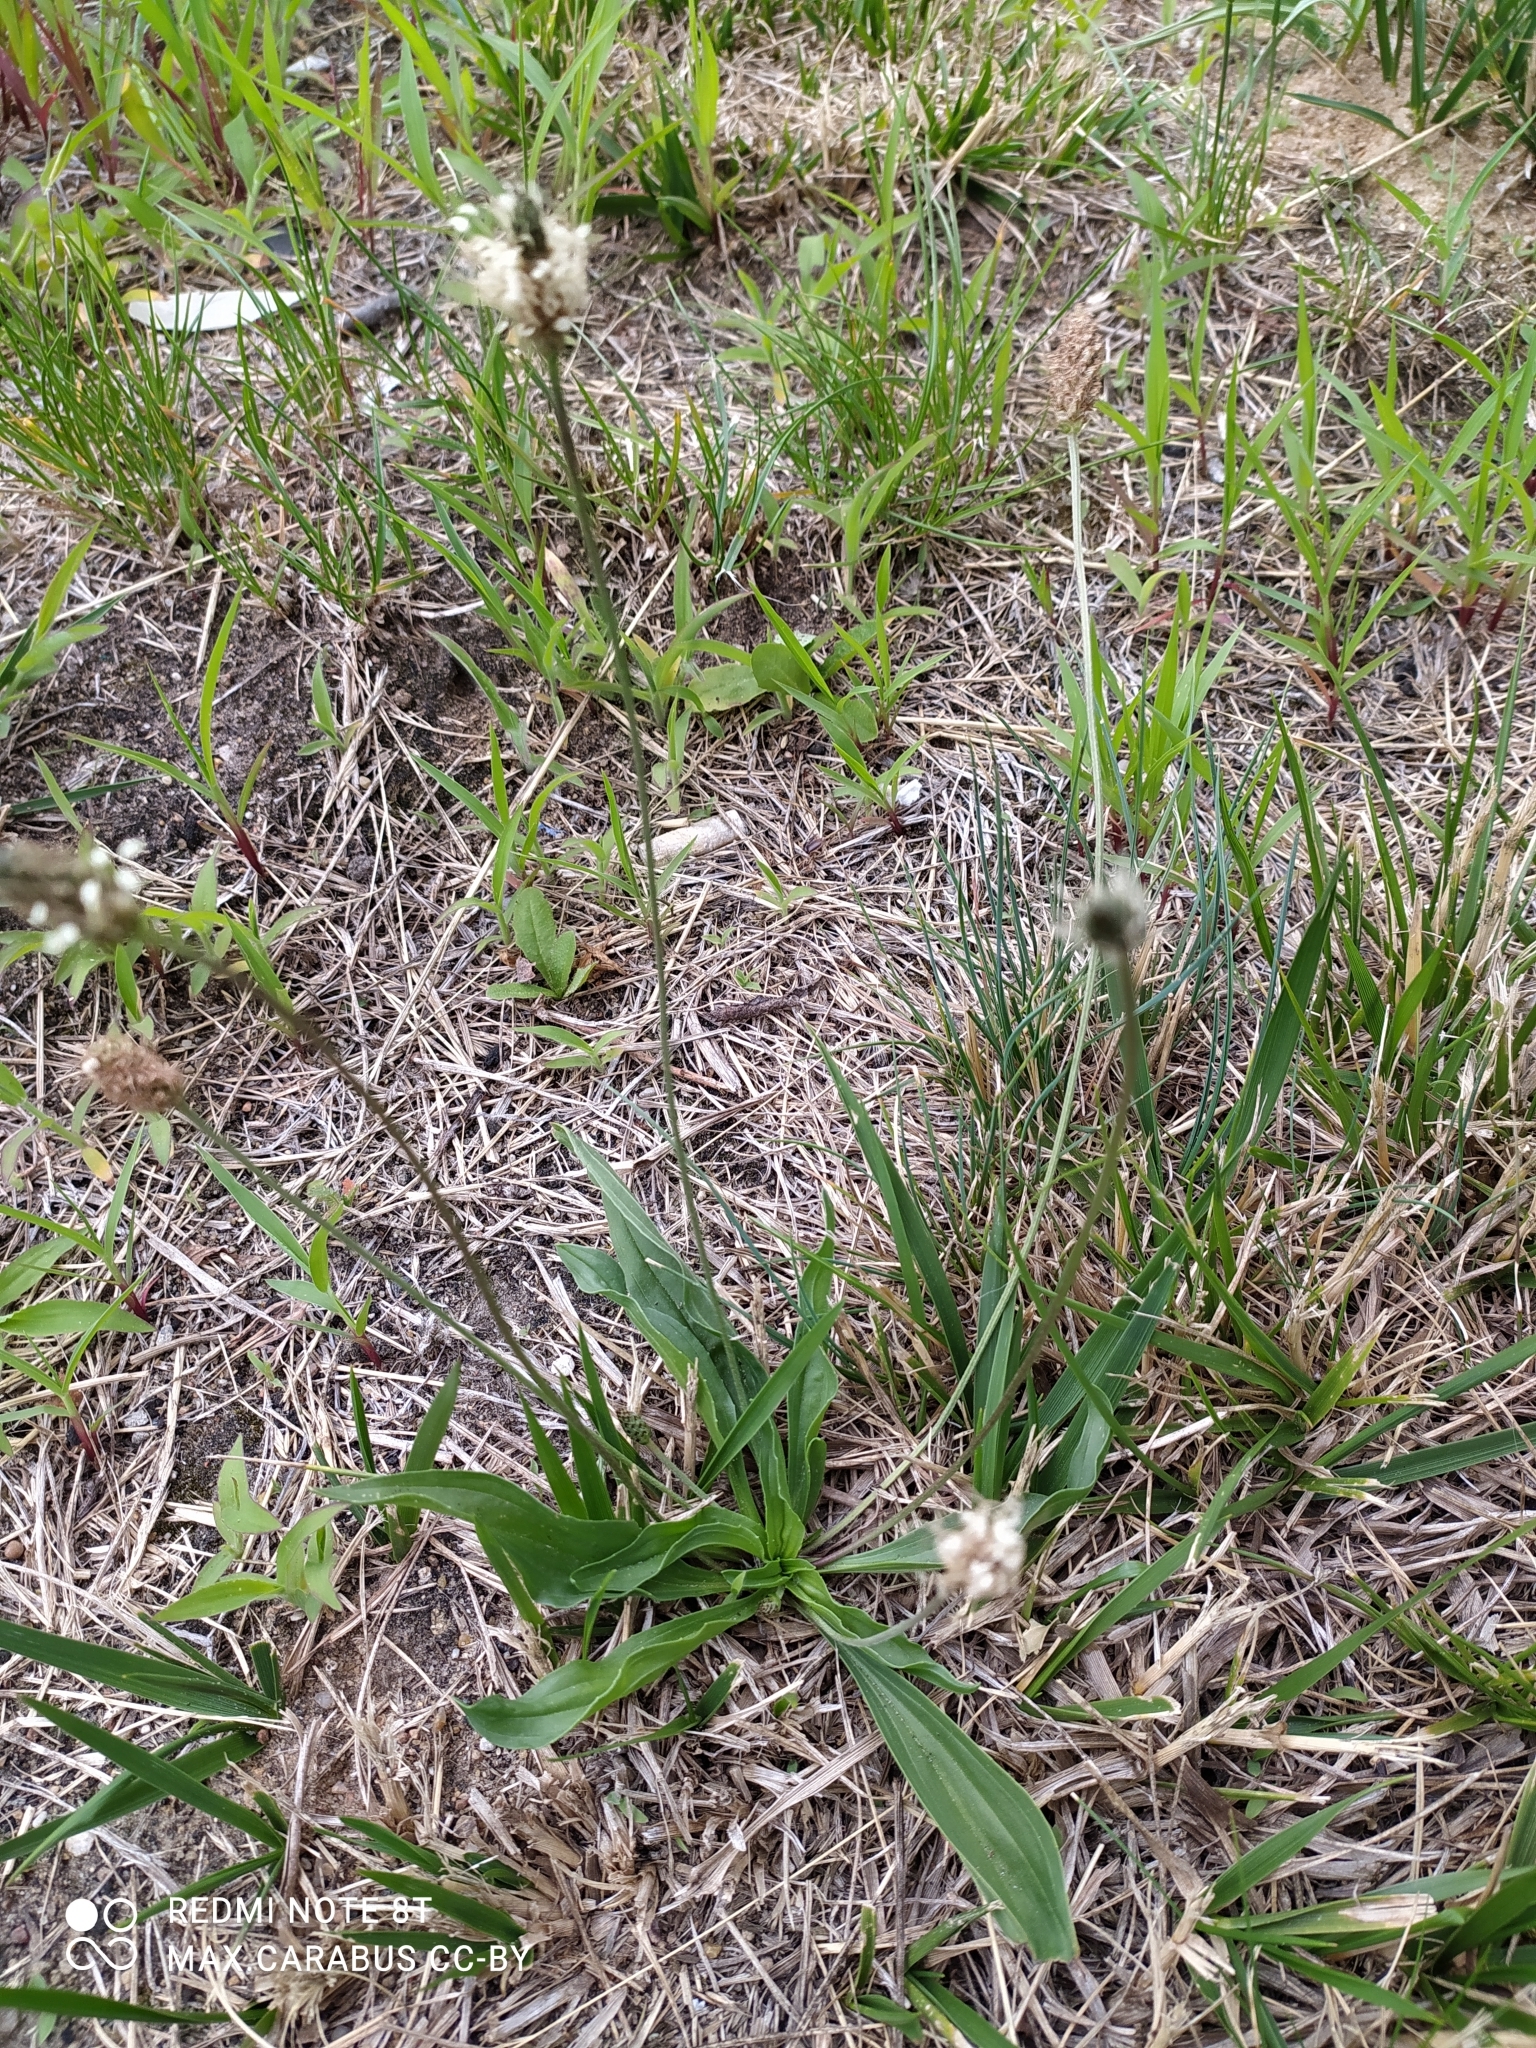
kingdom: Plantae
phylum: Tracheophyta
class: Magnoliopsida
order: Lamiales
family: Plantaginaceae
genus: Plantago
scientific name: Plantago lanceolata
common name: Ribwort plantain
